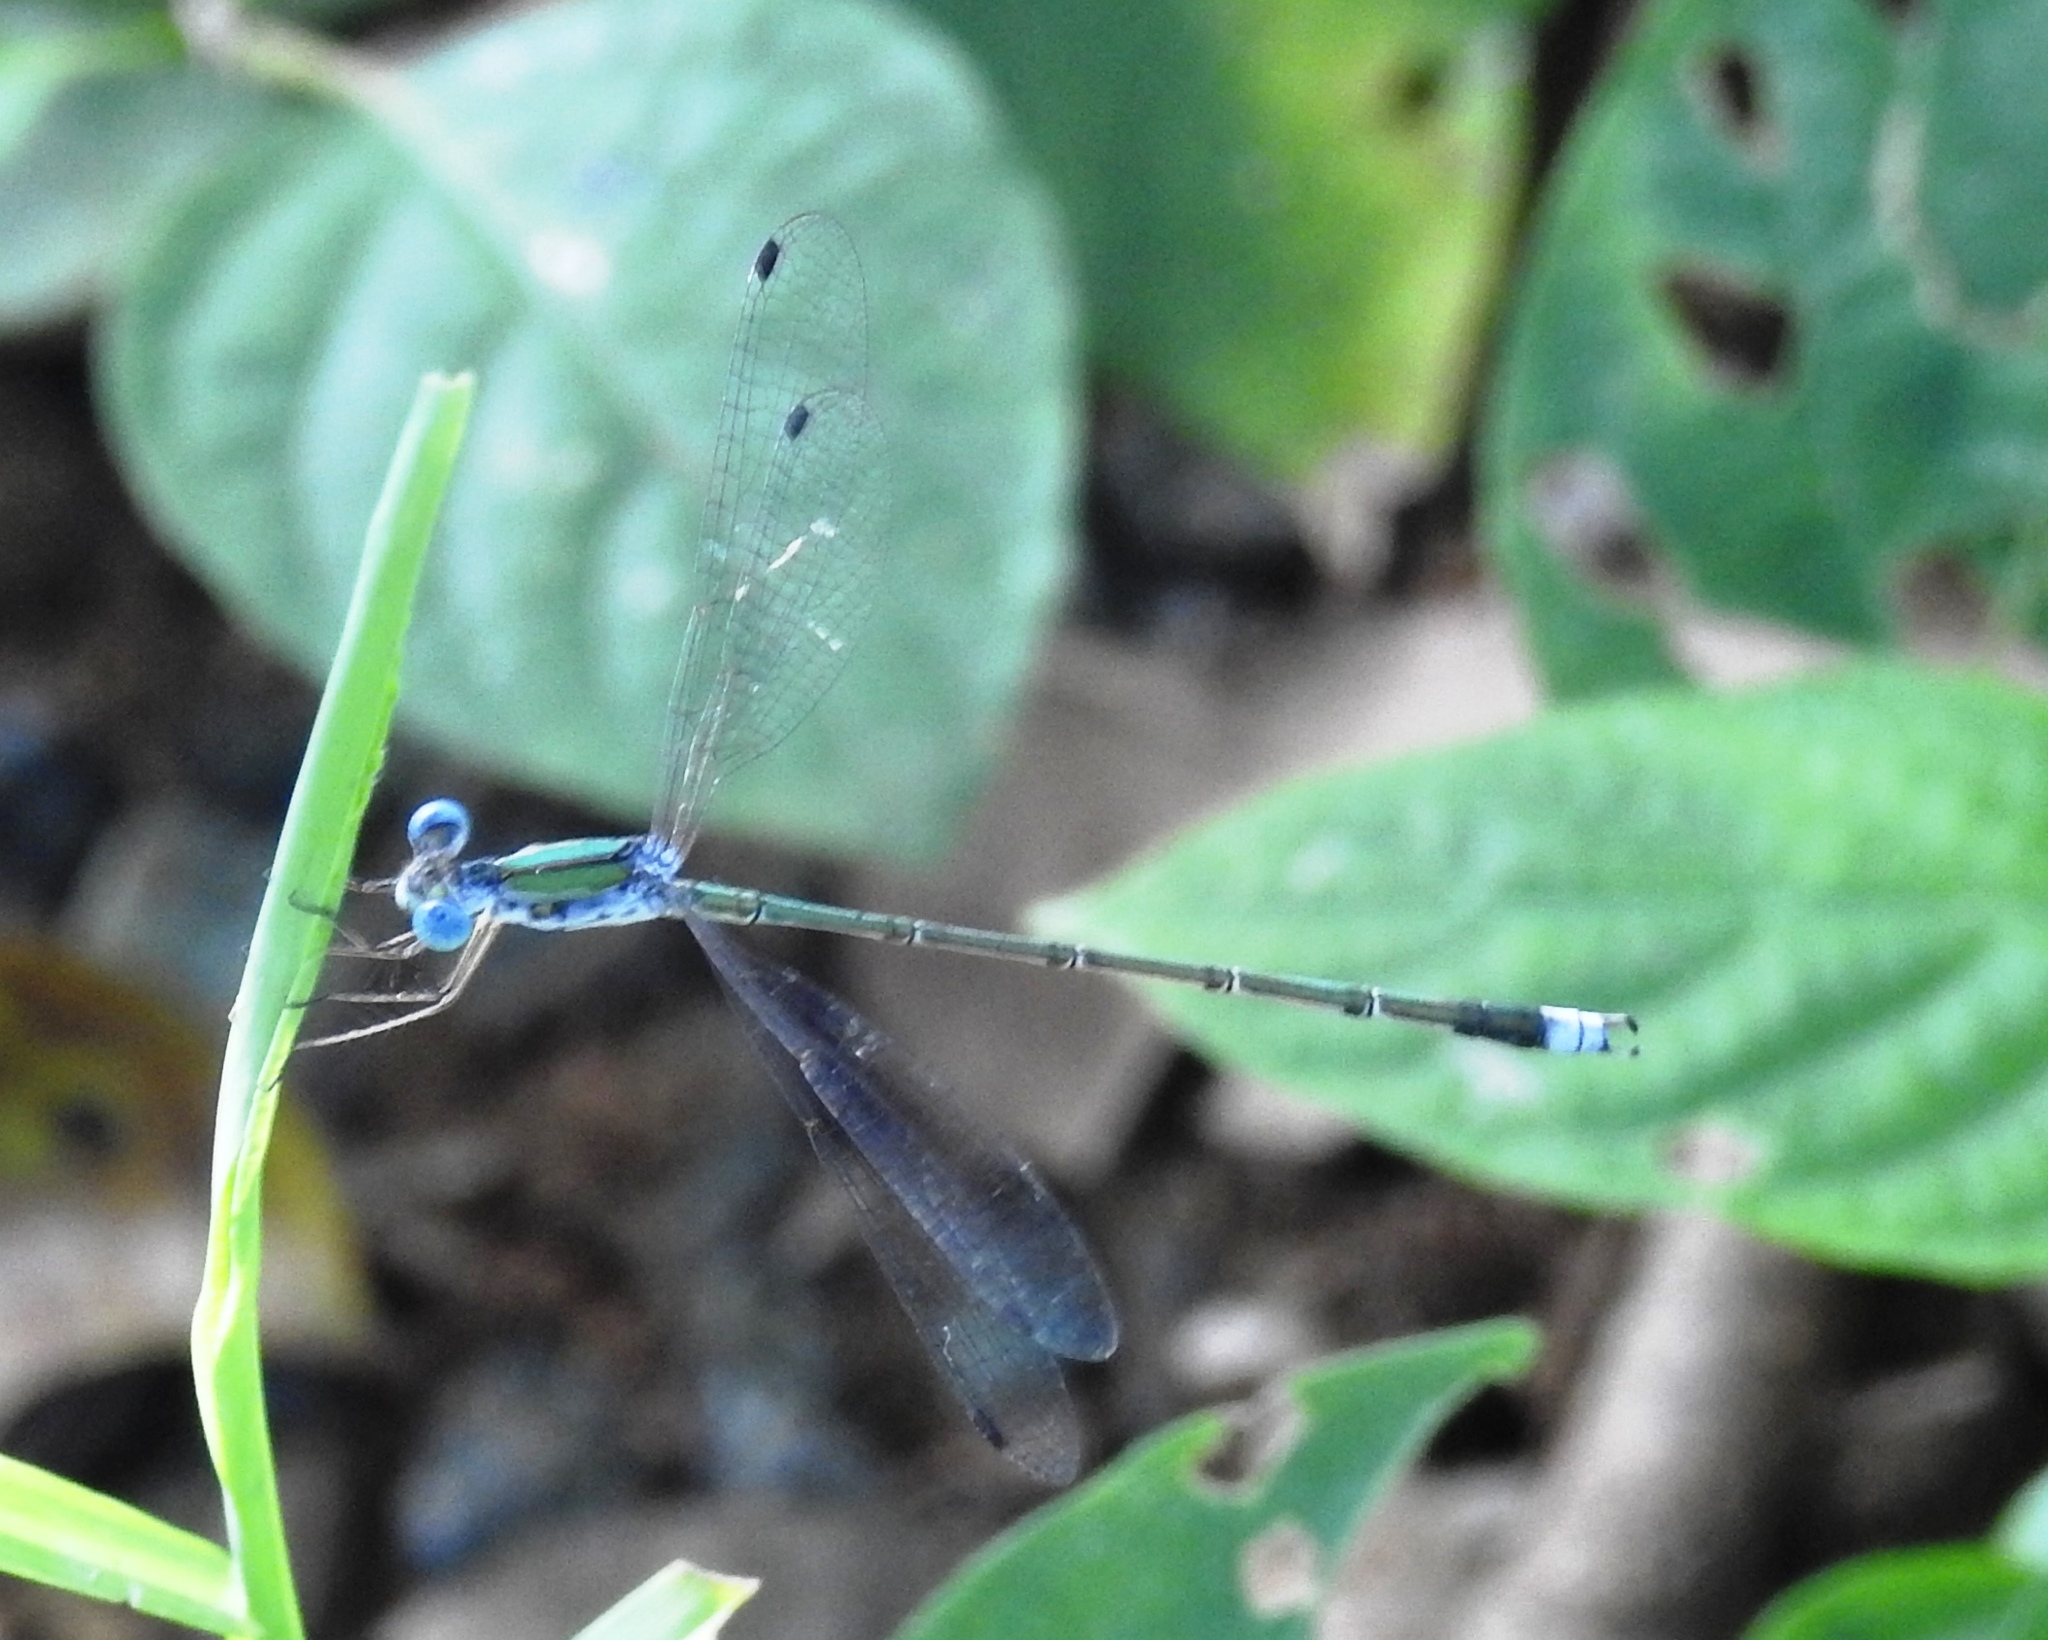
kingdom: Animalia
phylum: Arthropoda
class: Insecta
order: Odonata
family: Lestidae
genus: Lestes
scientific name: Lestes elatus
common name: Emerald spreadwing
